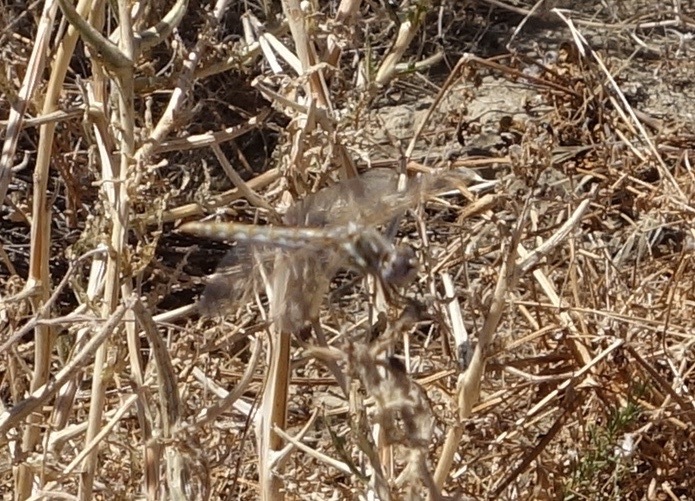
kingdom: Animalia
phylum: Arthropoda
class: Insecta
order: Odonata
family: Libellulidae
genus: Sympetrum
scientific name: Sympetrum corruptum
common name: Variegated meadowhawk
